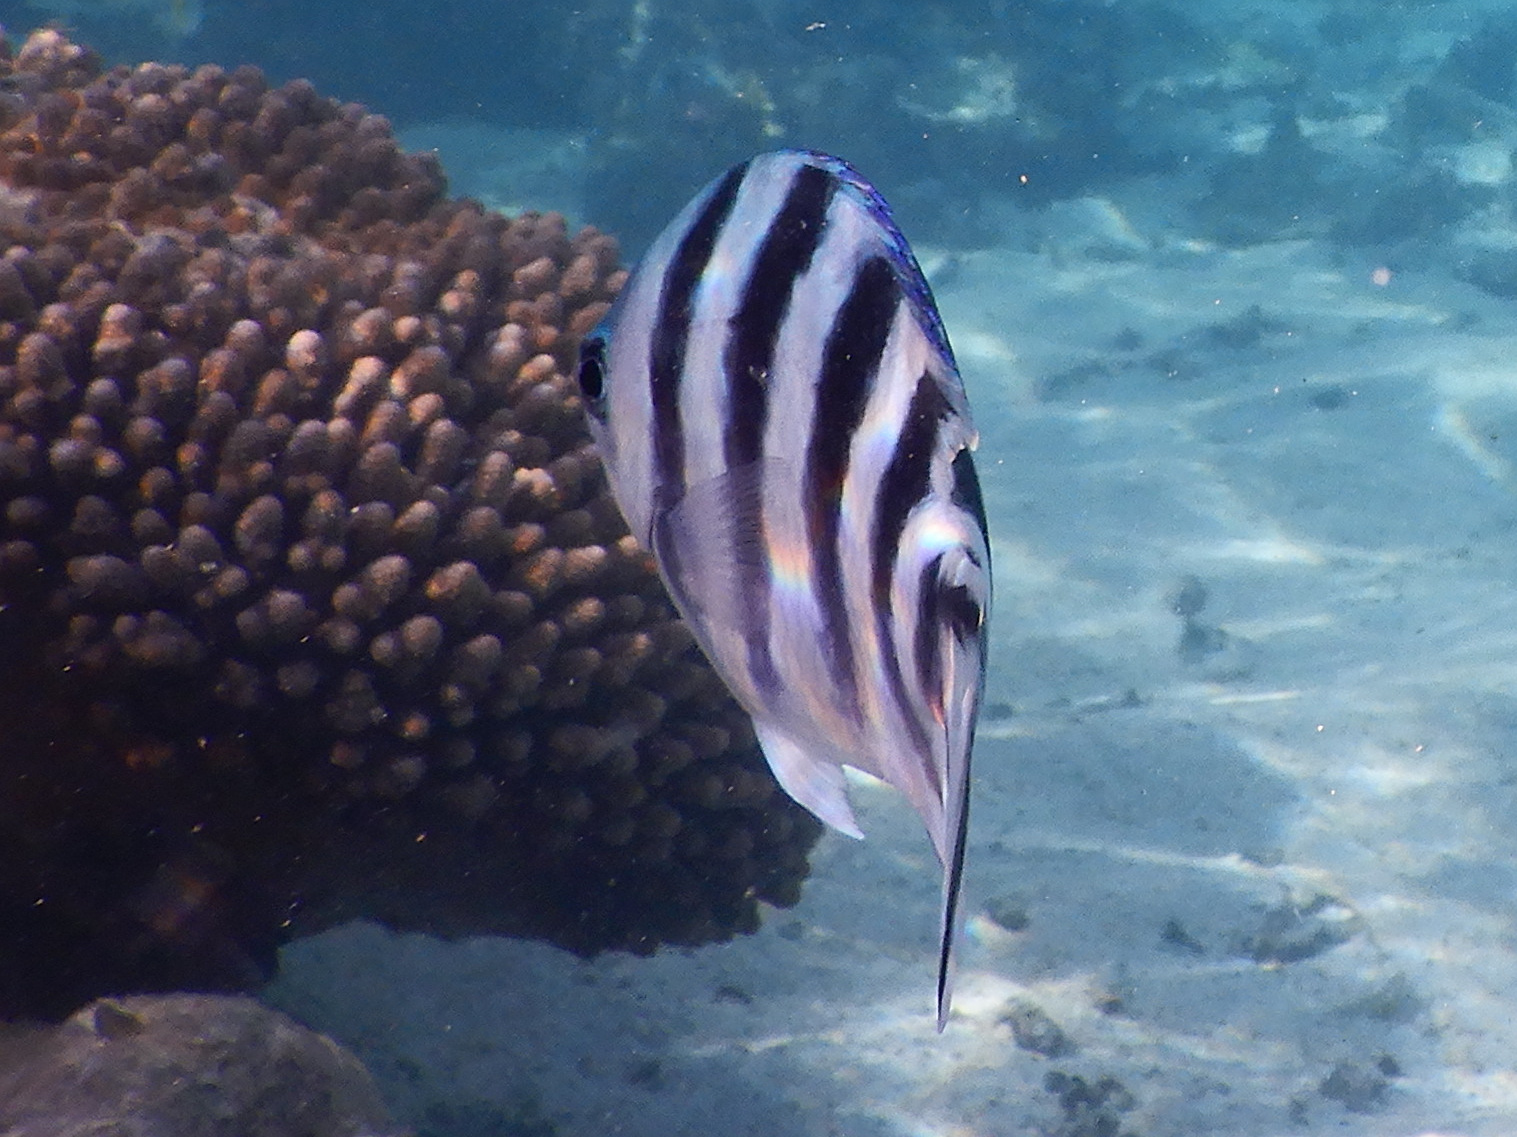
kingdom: Animalia
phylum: Chordata
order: Perciformes
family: Pomacentridae
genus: Abudefduf
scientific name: Abudefduf sexfasciatus
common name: Scissortail sergeant
